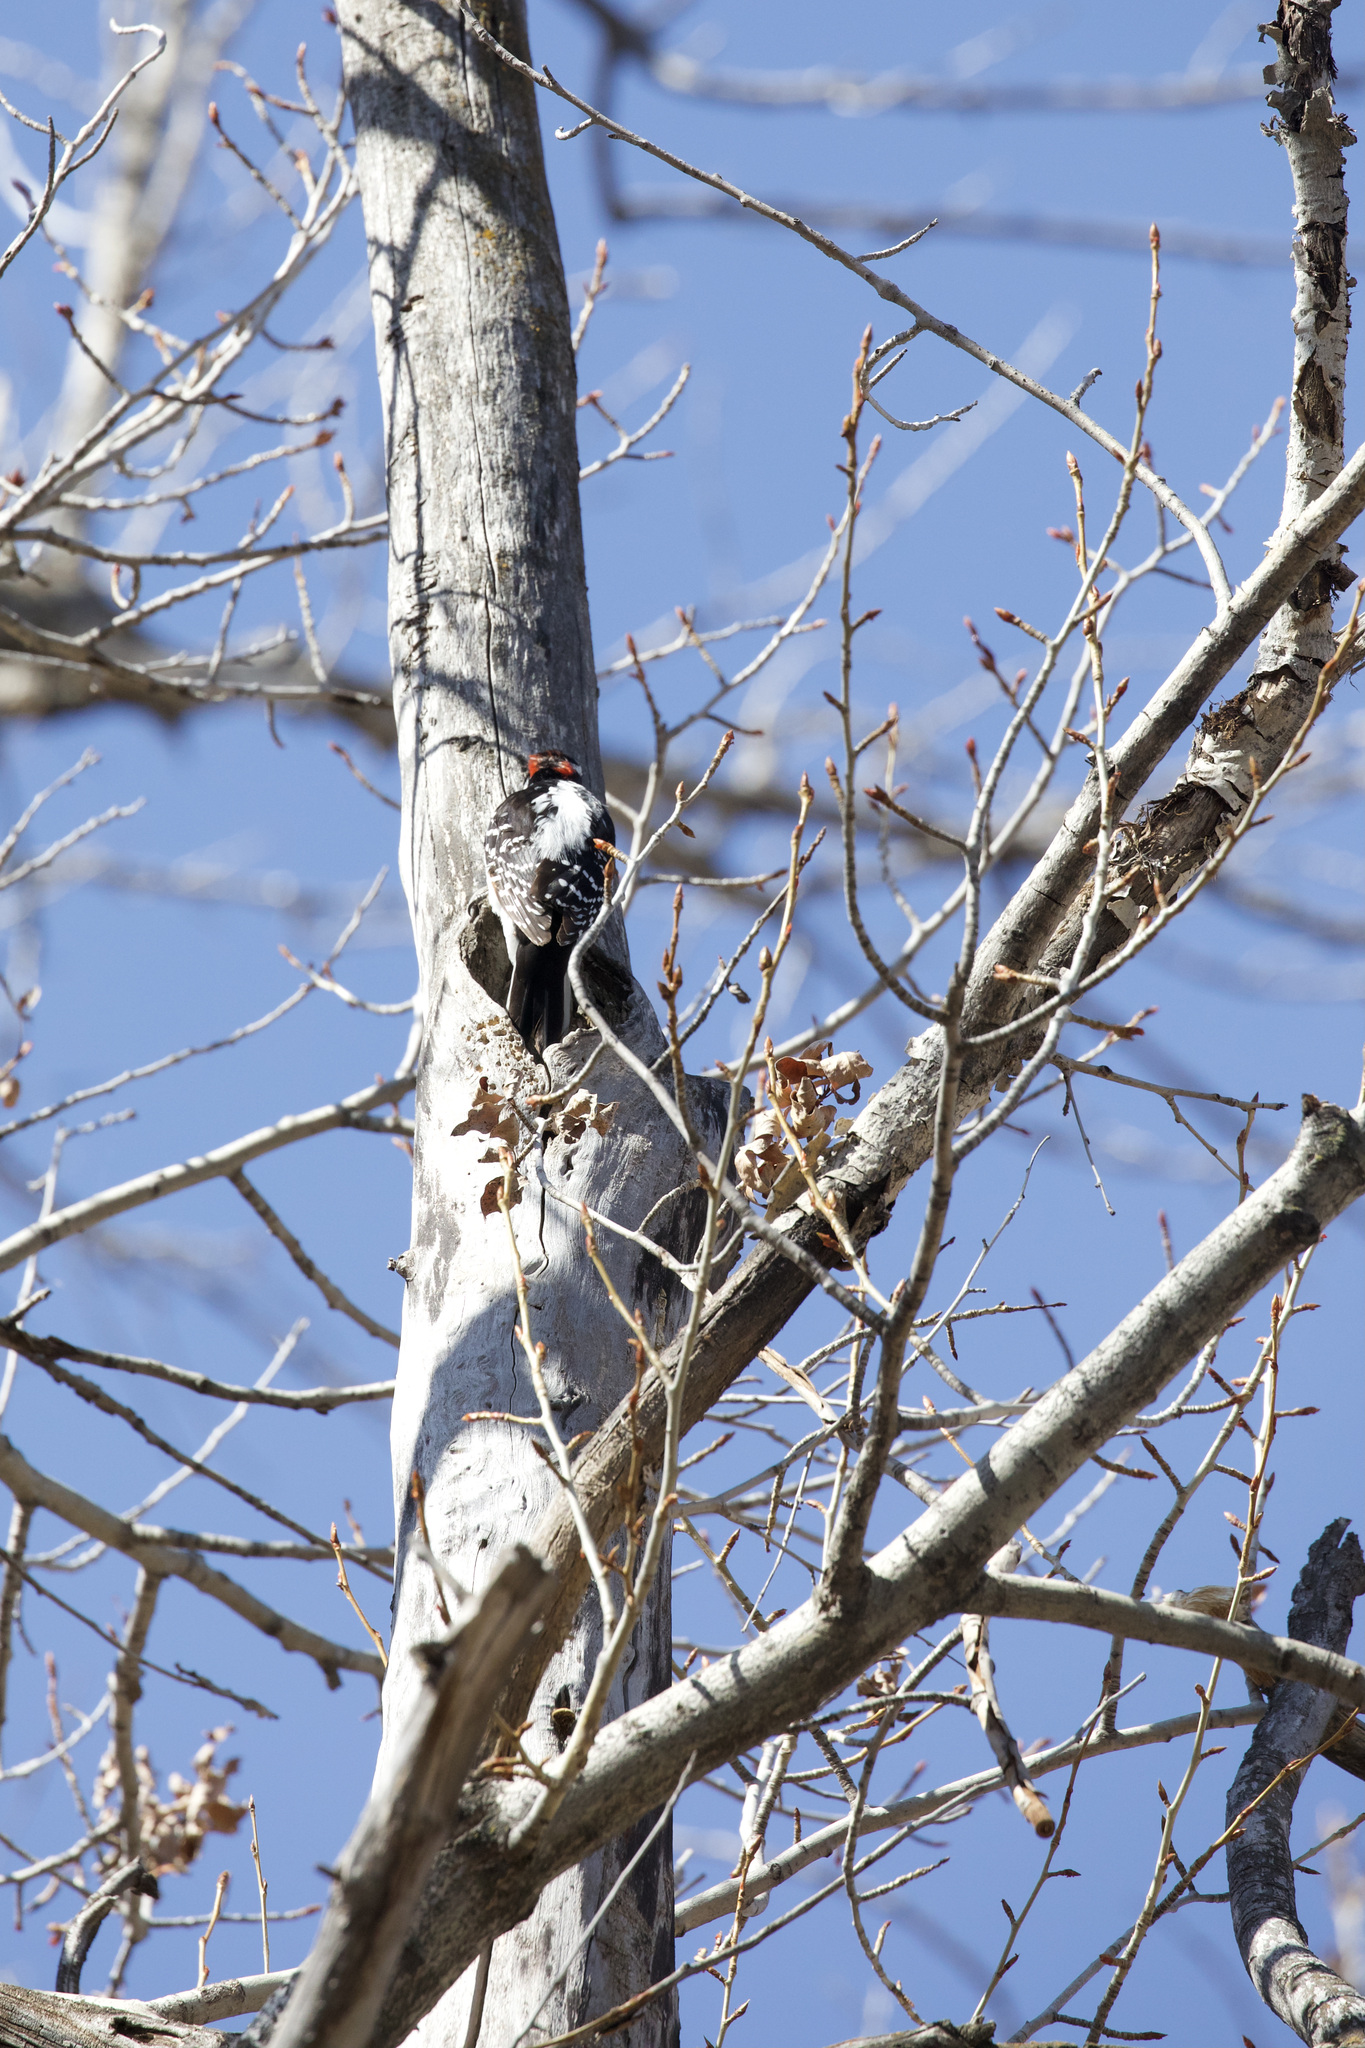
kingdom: Animalia
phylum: Chordata
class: Aves
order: Piciformes
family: Picidae
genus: Leuconotopicus
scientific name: Leuconotopicus villosus
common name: Hairy woodpecker
